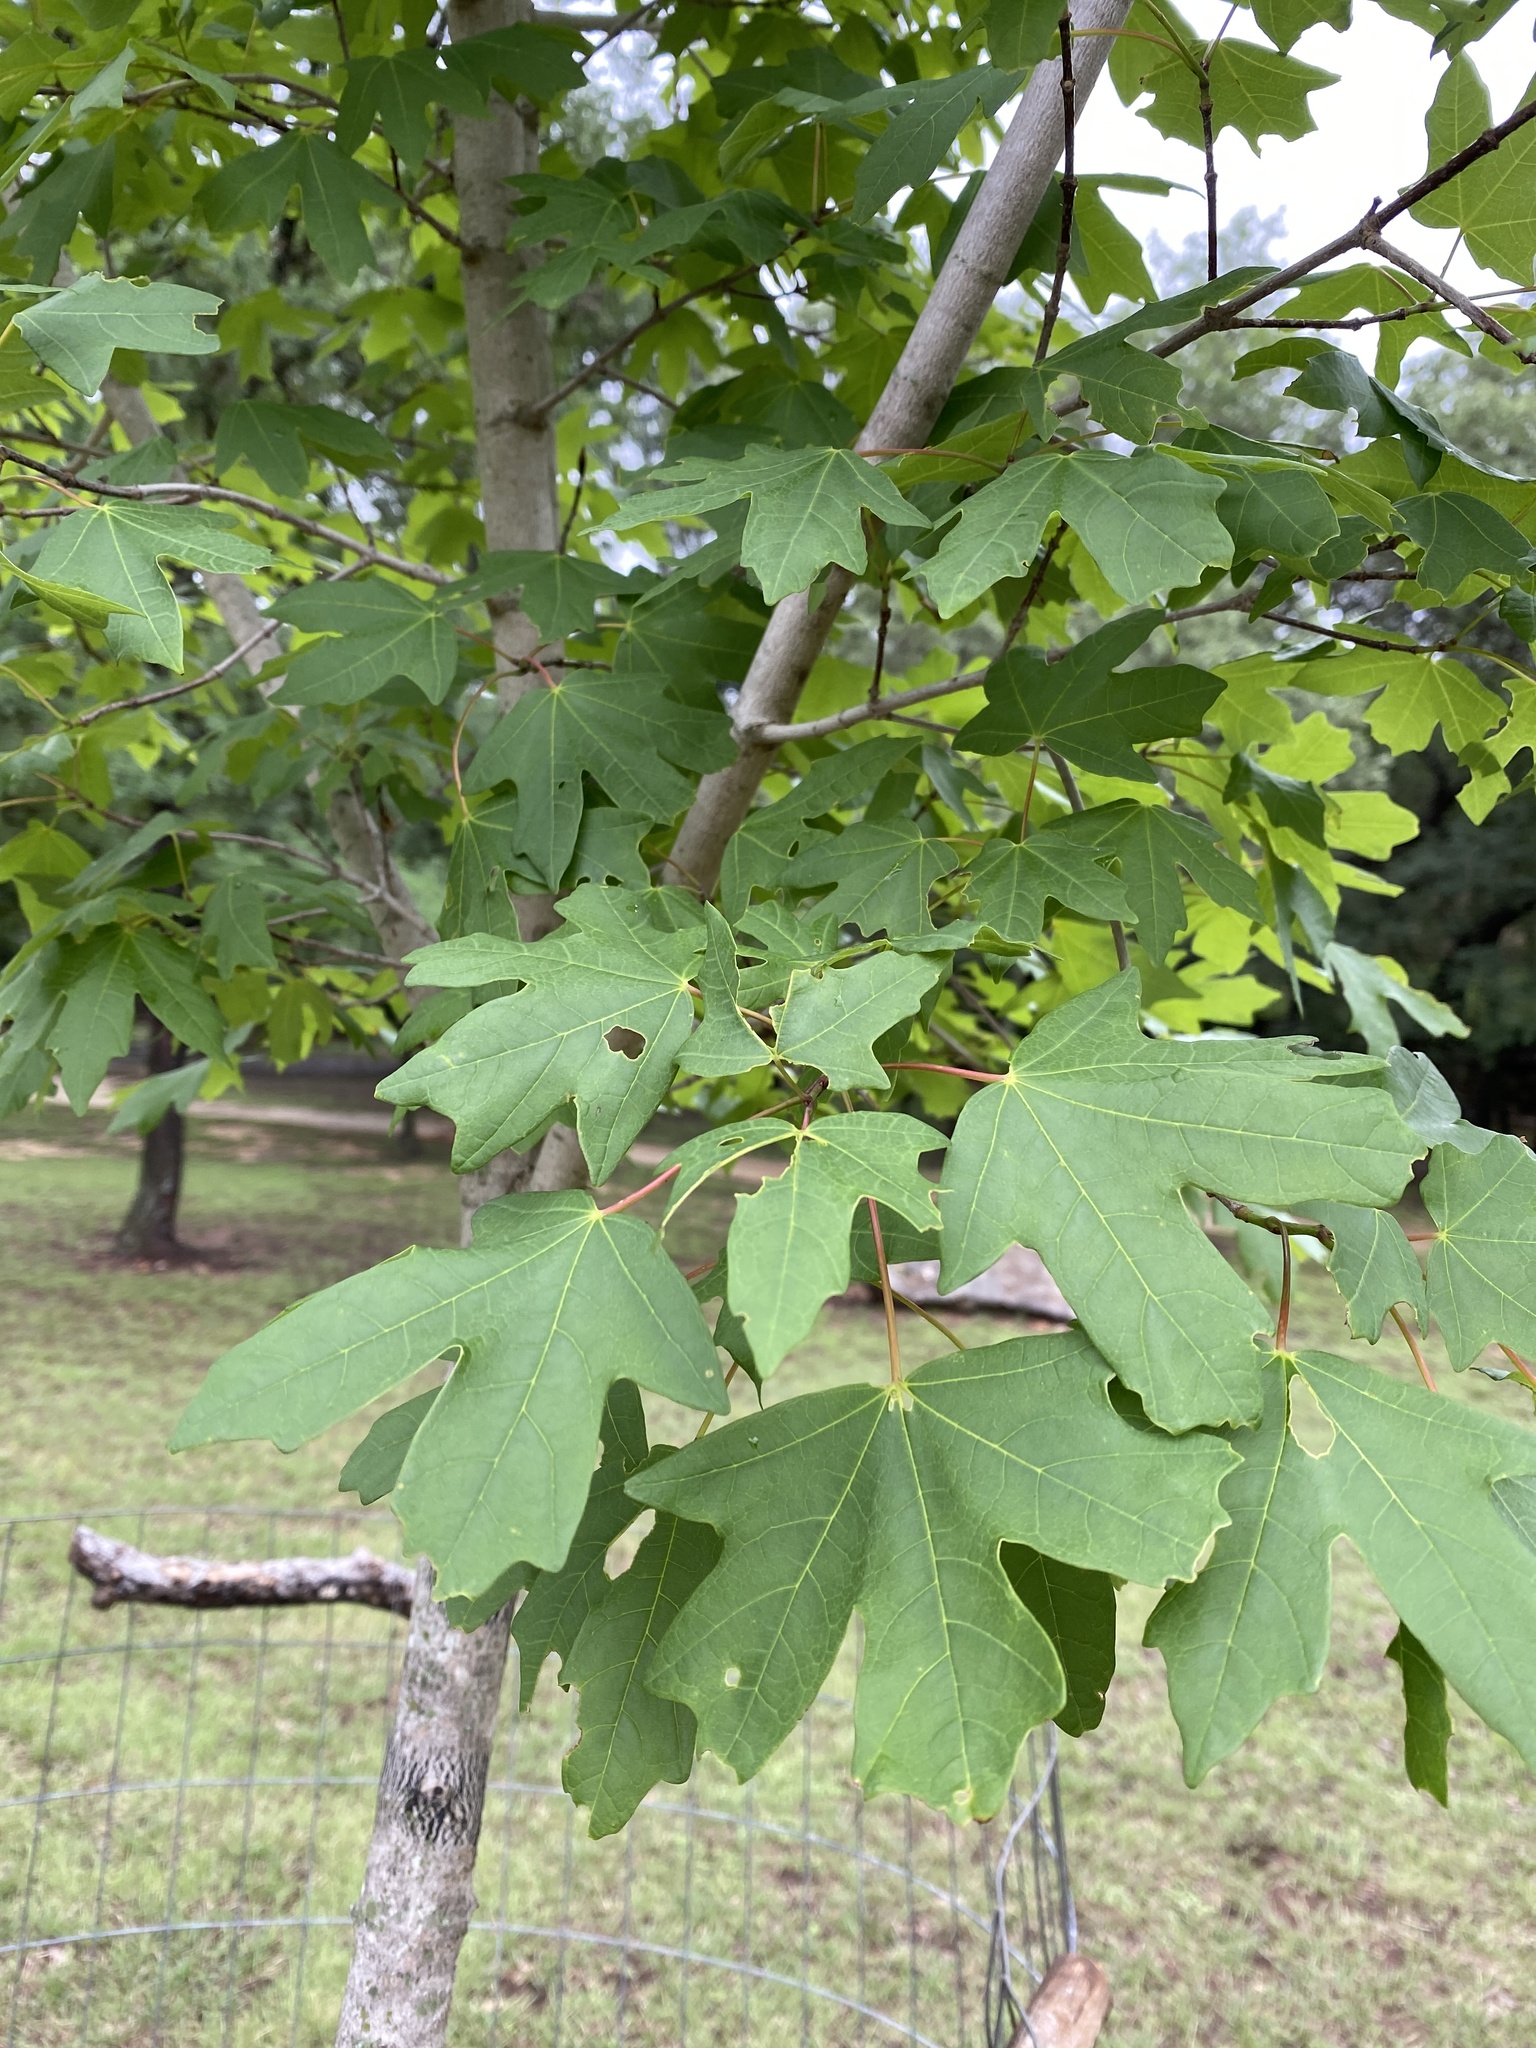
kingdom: Plantae
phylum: Tracheophyta
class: Magnoliopsida
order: Sapindales
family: Sapindaceae
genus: Acer
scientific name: Acer grandidentatum
